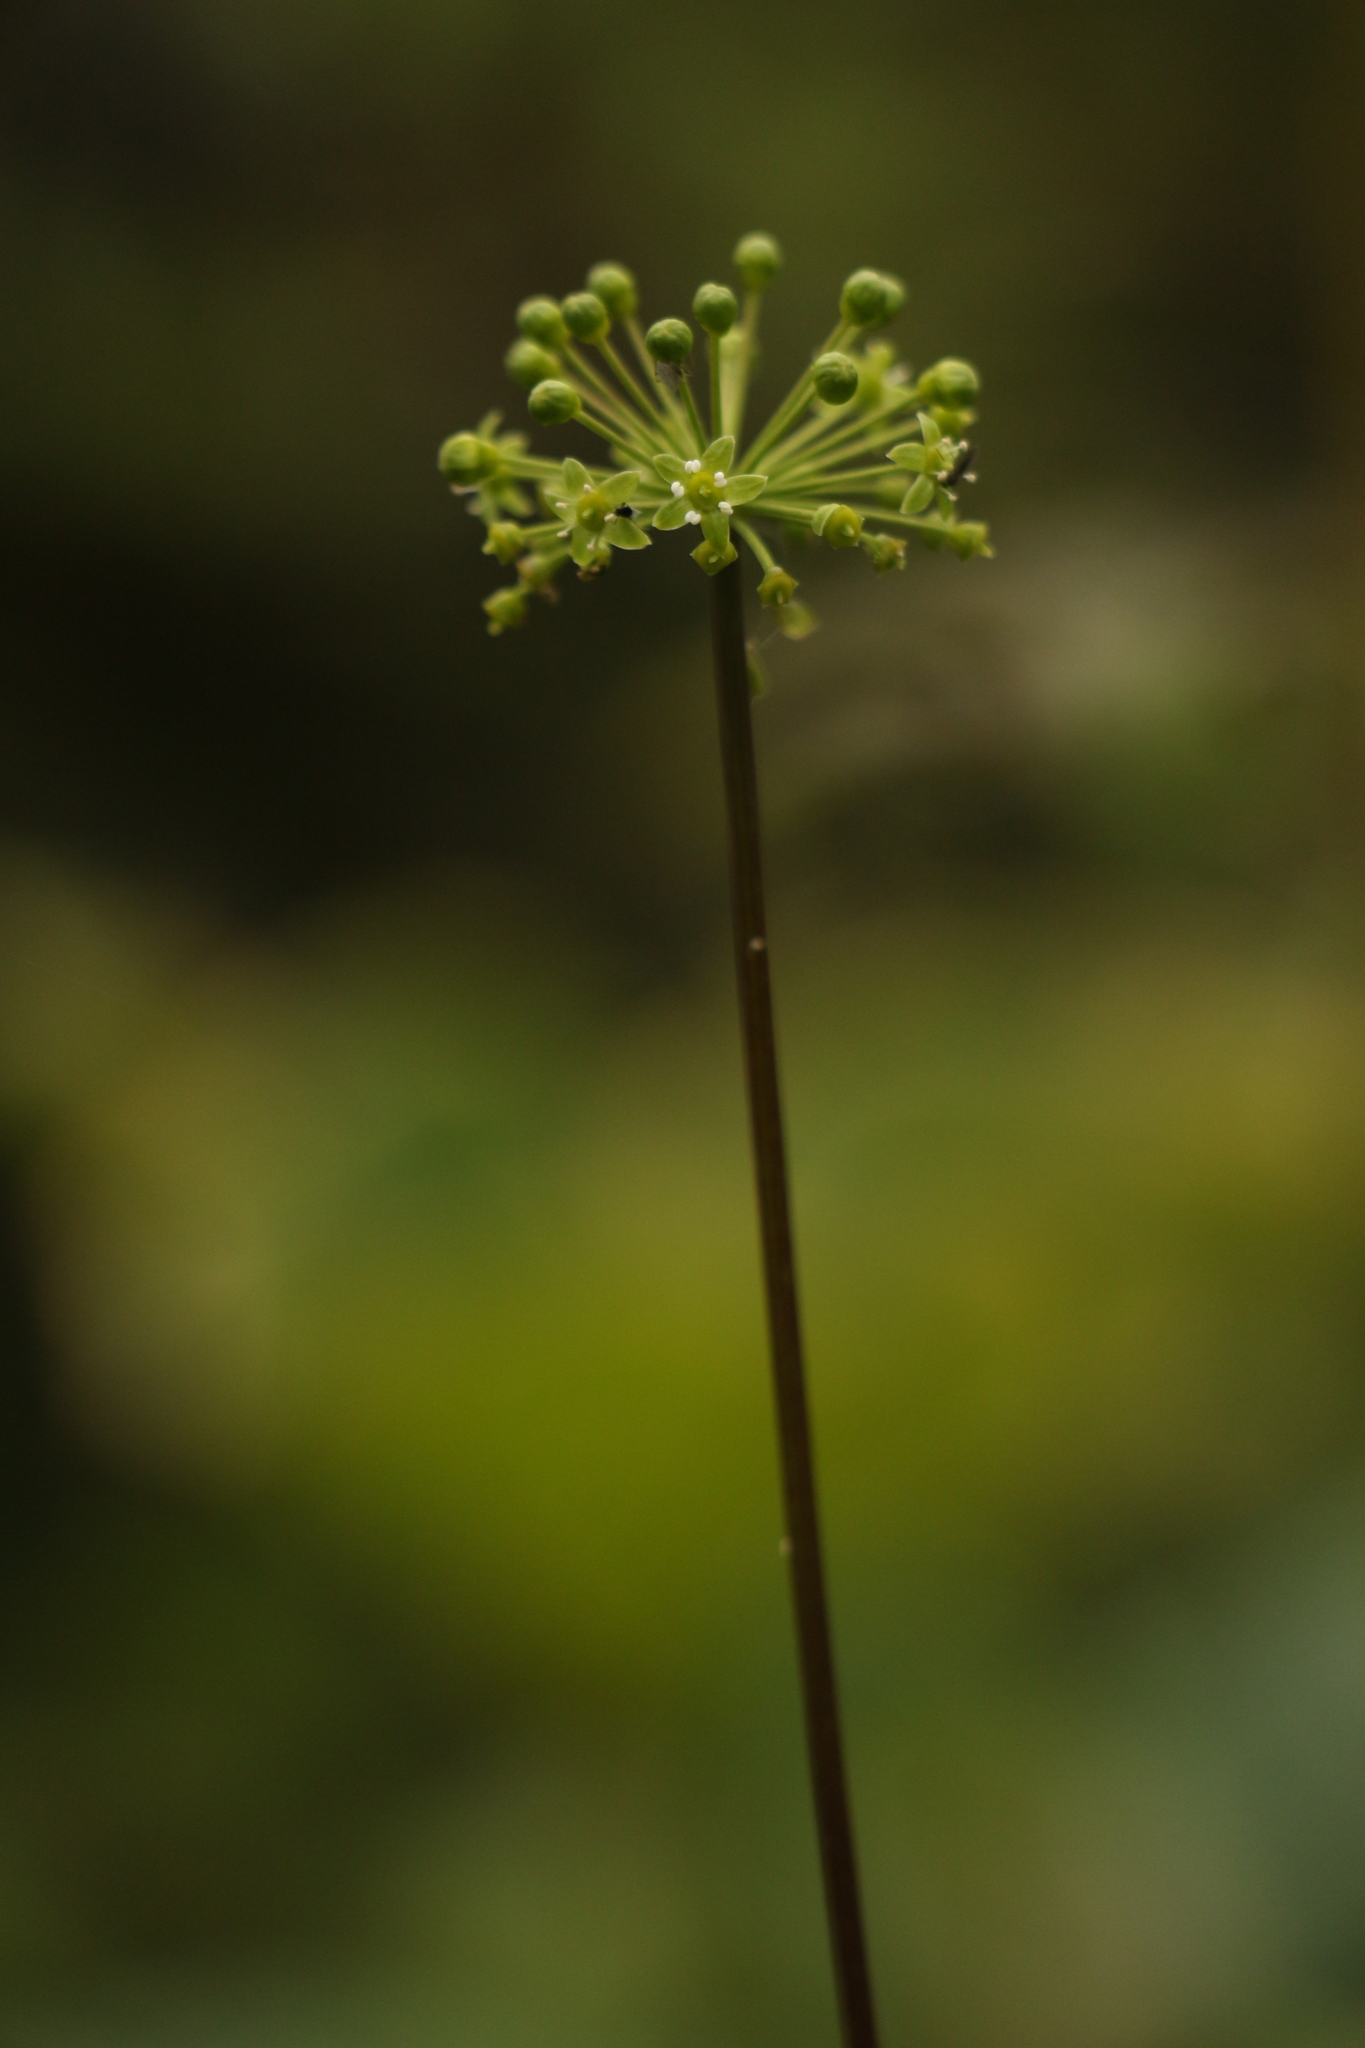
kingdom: Plantae
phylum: Tracheophyta
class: Magnoliopsida
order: Apiales
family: Araliaceae
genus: Panax
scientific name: Panax pseudoginseng
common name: Pseudoginseng
